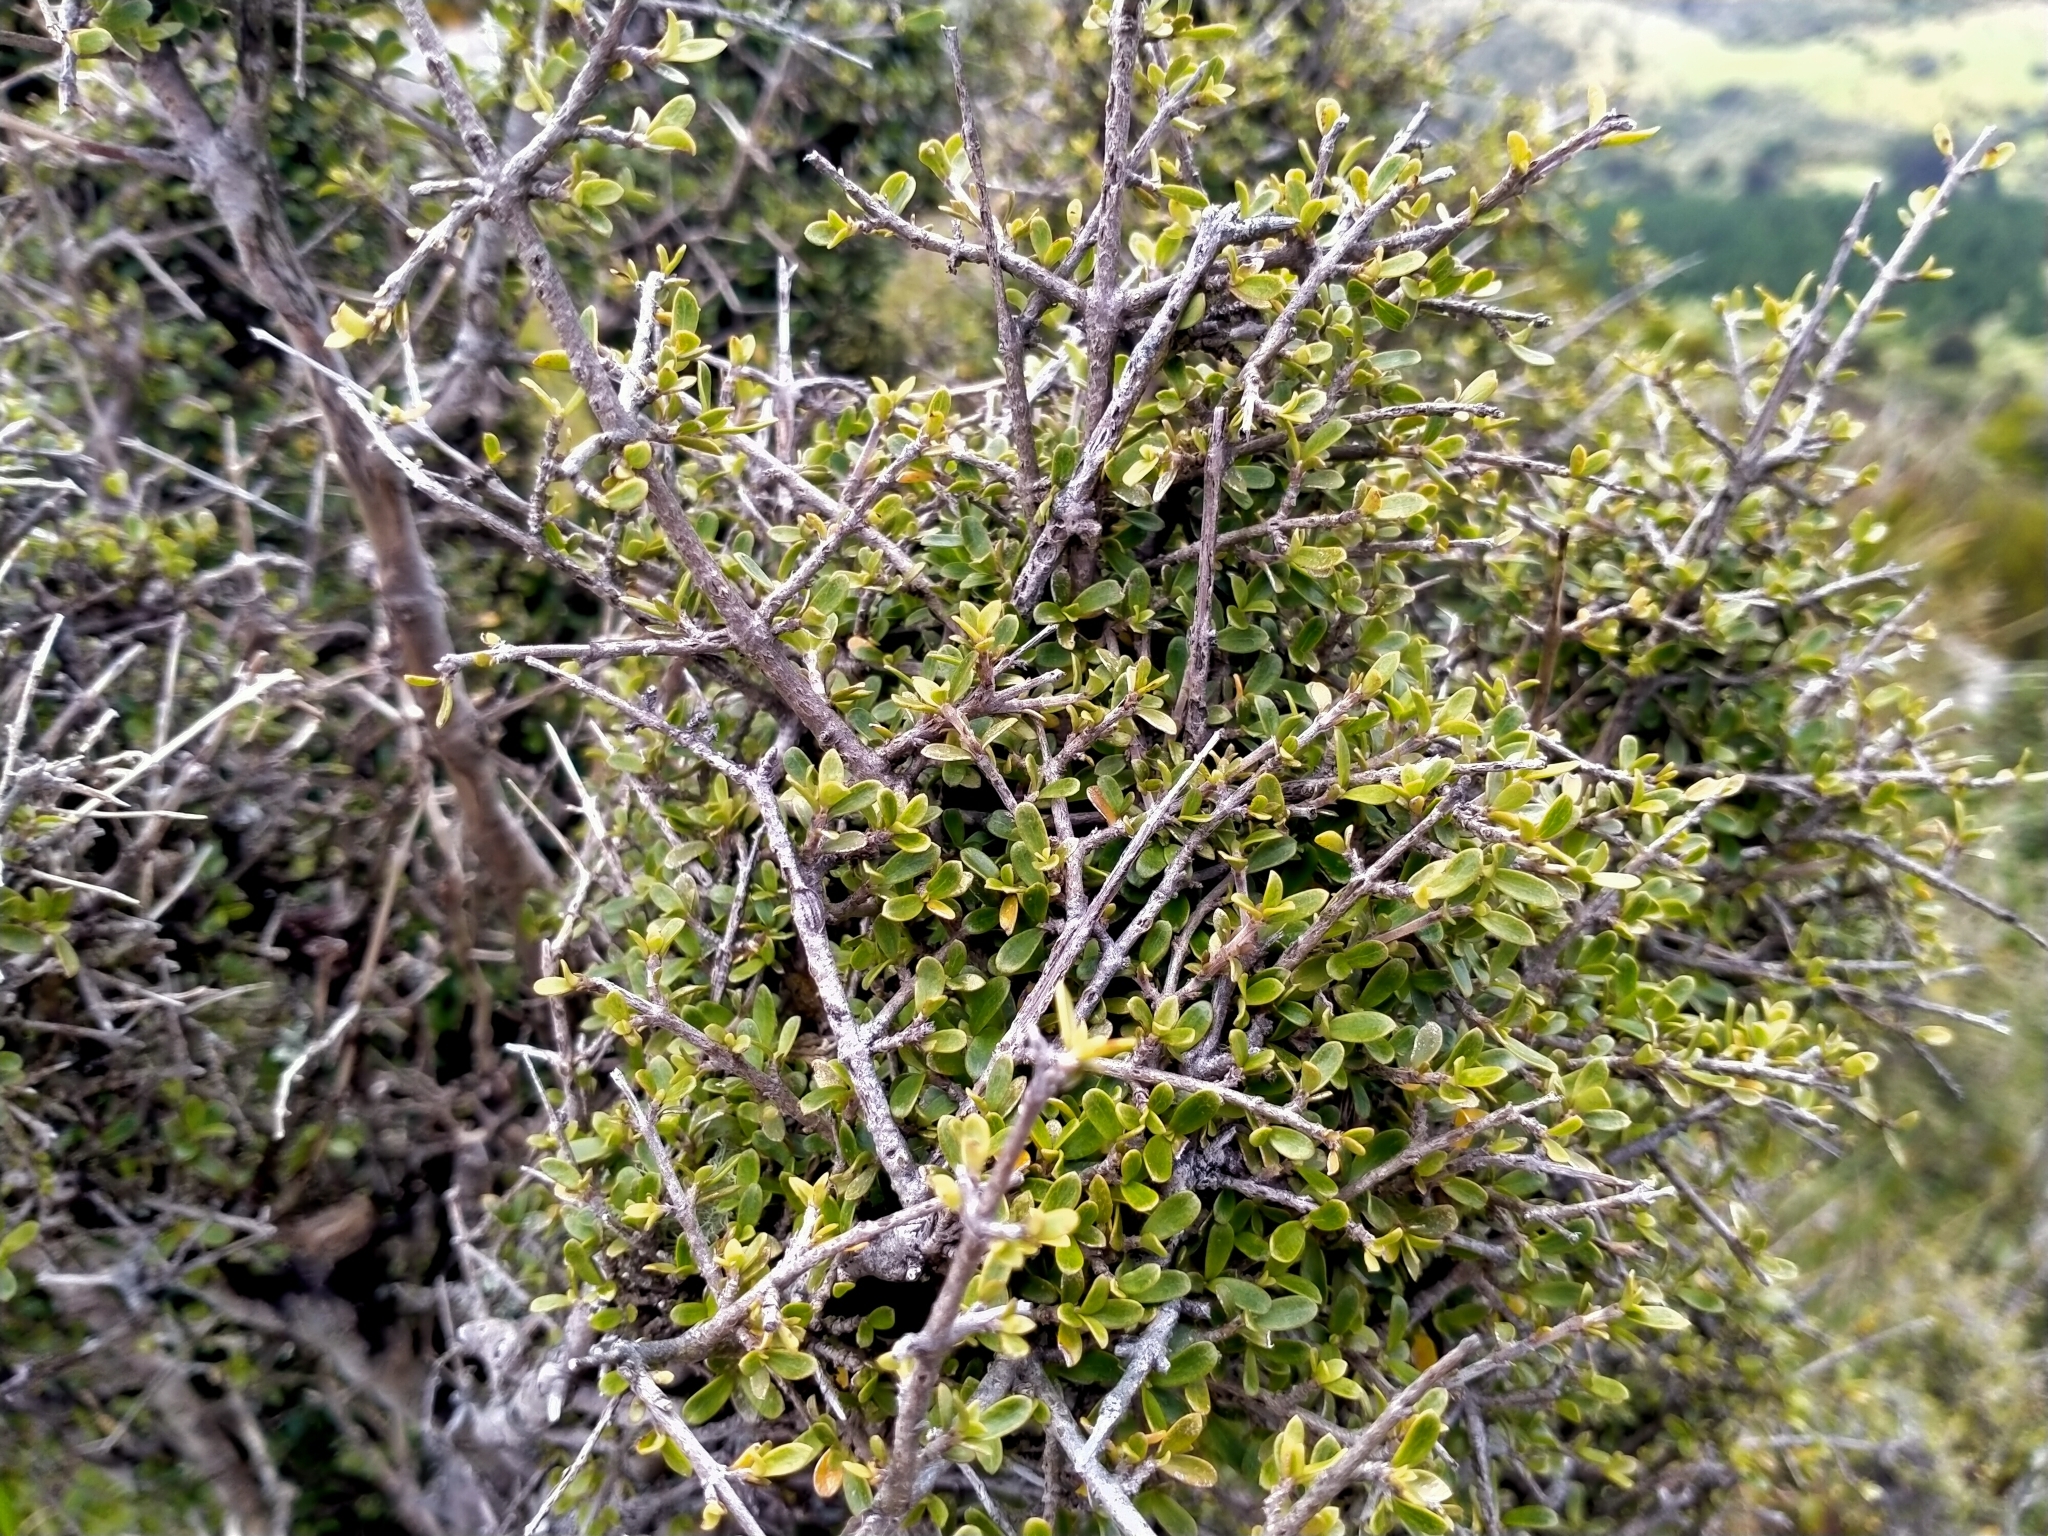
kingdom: Plantae
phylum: Tracheophyta
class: Magnoliopsida
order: Gentianales
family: Rubiaceae
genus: Coprosma
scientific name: Coprosma dumosa
